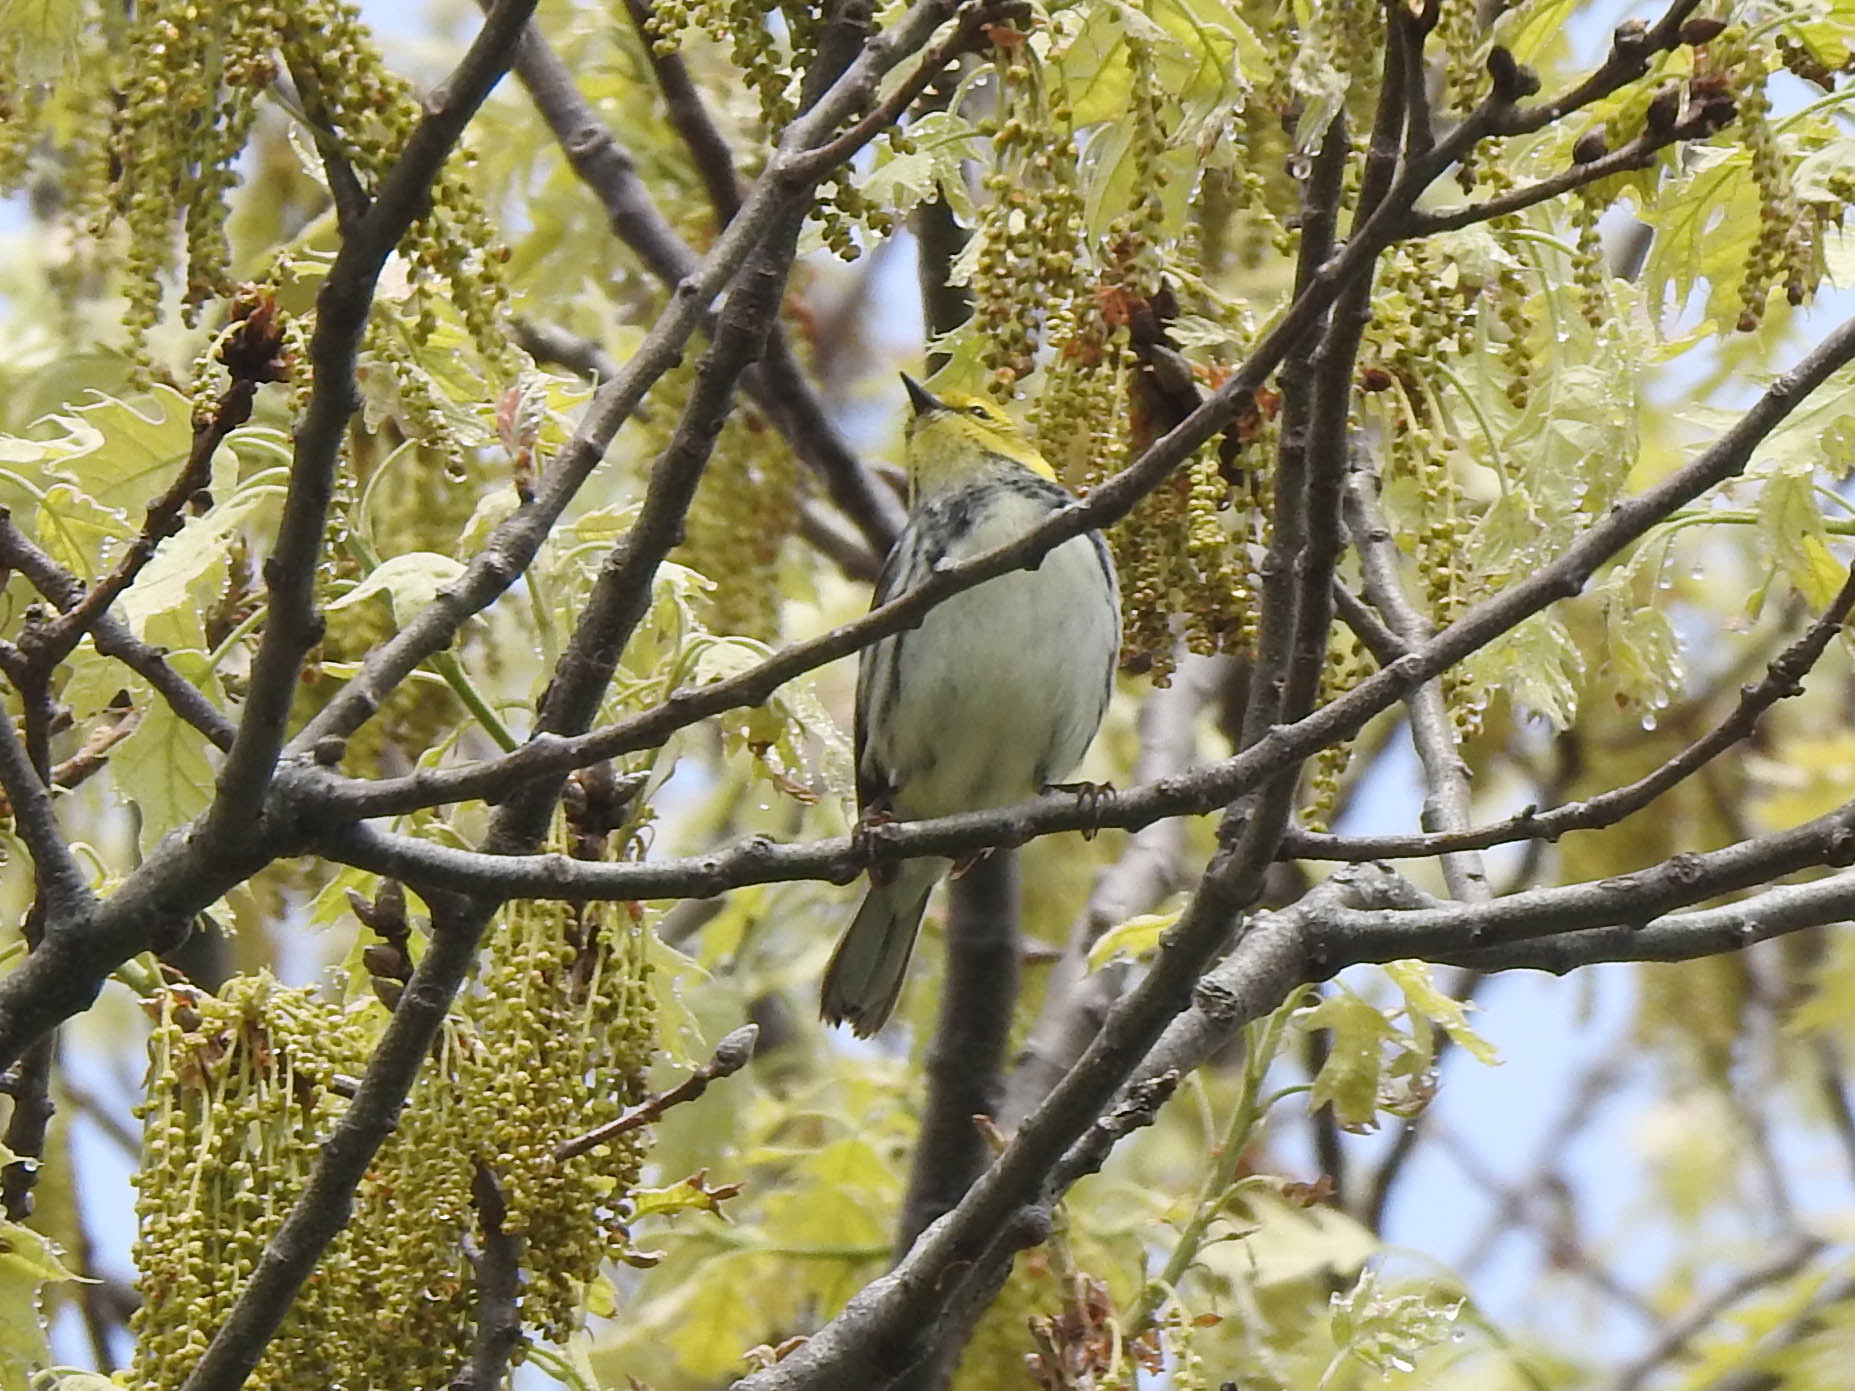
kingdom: Animalia
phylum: Chordata
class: Aves
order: Passeriformes
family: Parulidae
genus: Setophaga
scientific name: Setophaga virens
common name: Black-throated green warbler
